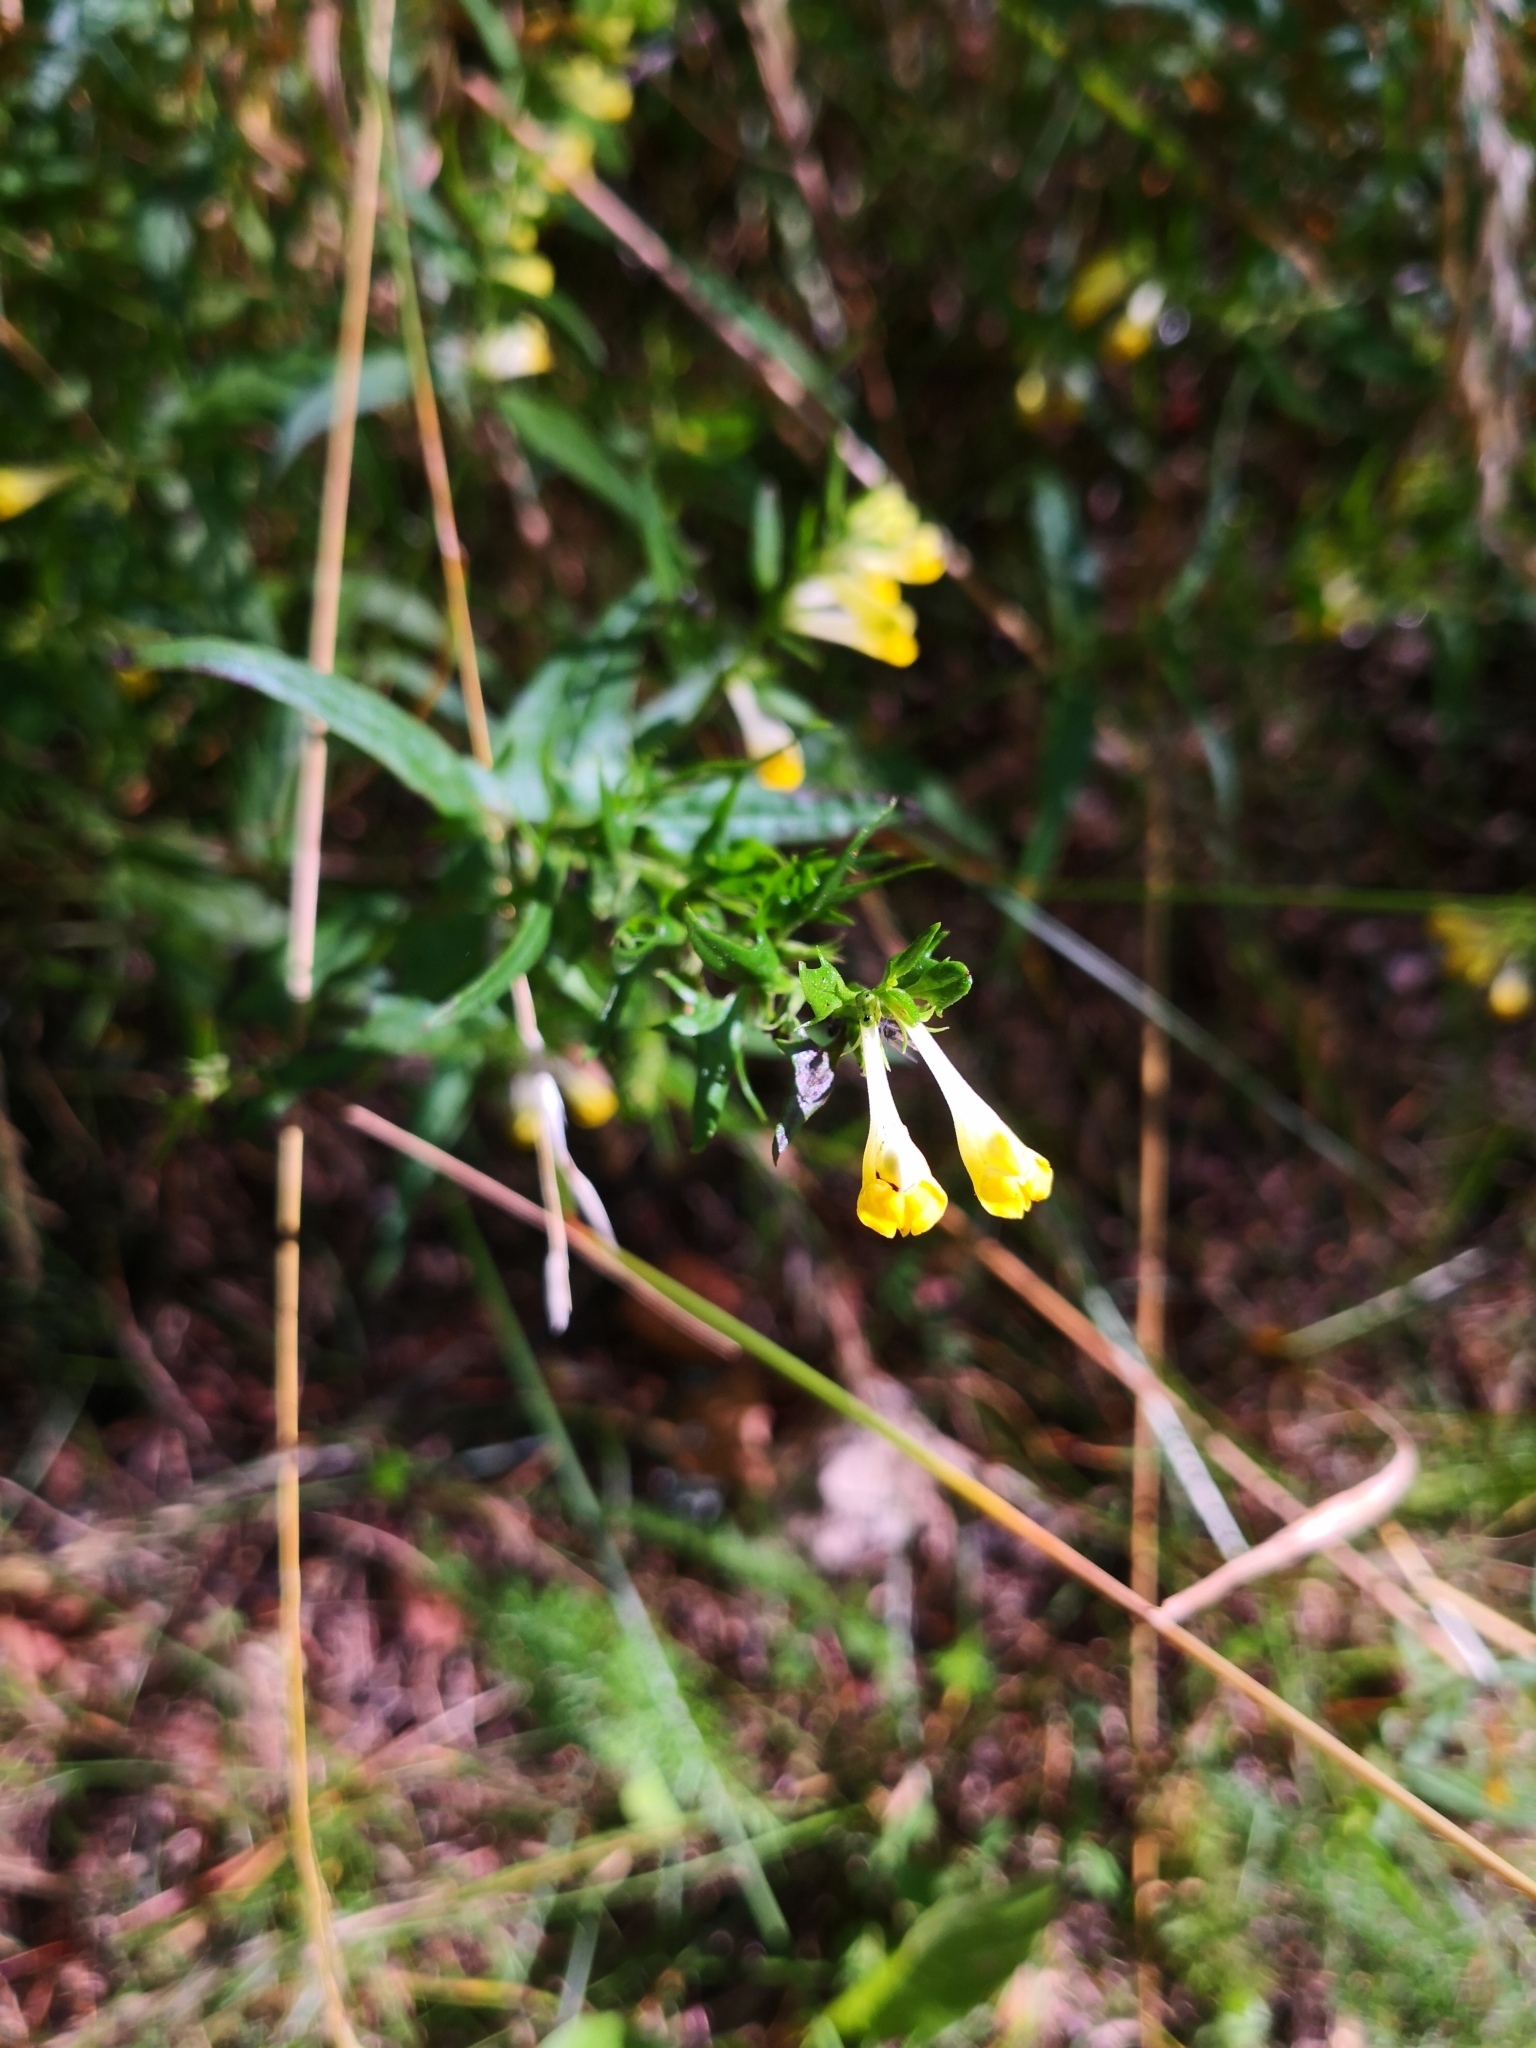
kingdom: Plantae
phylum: Tracheophyta
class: Magnoliopsida
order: Lamiales
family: Orobanchaceae
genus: Melampyrum
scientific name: Melampyrum pratense
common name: Common cow-wheat
